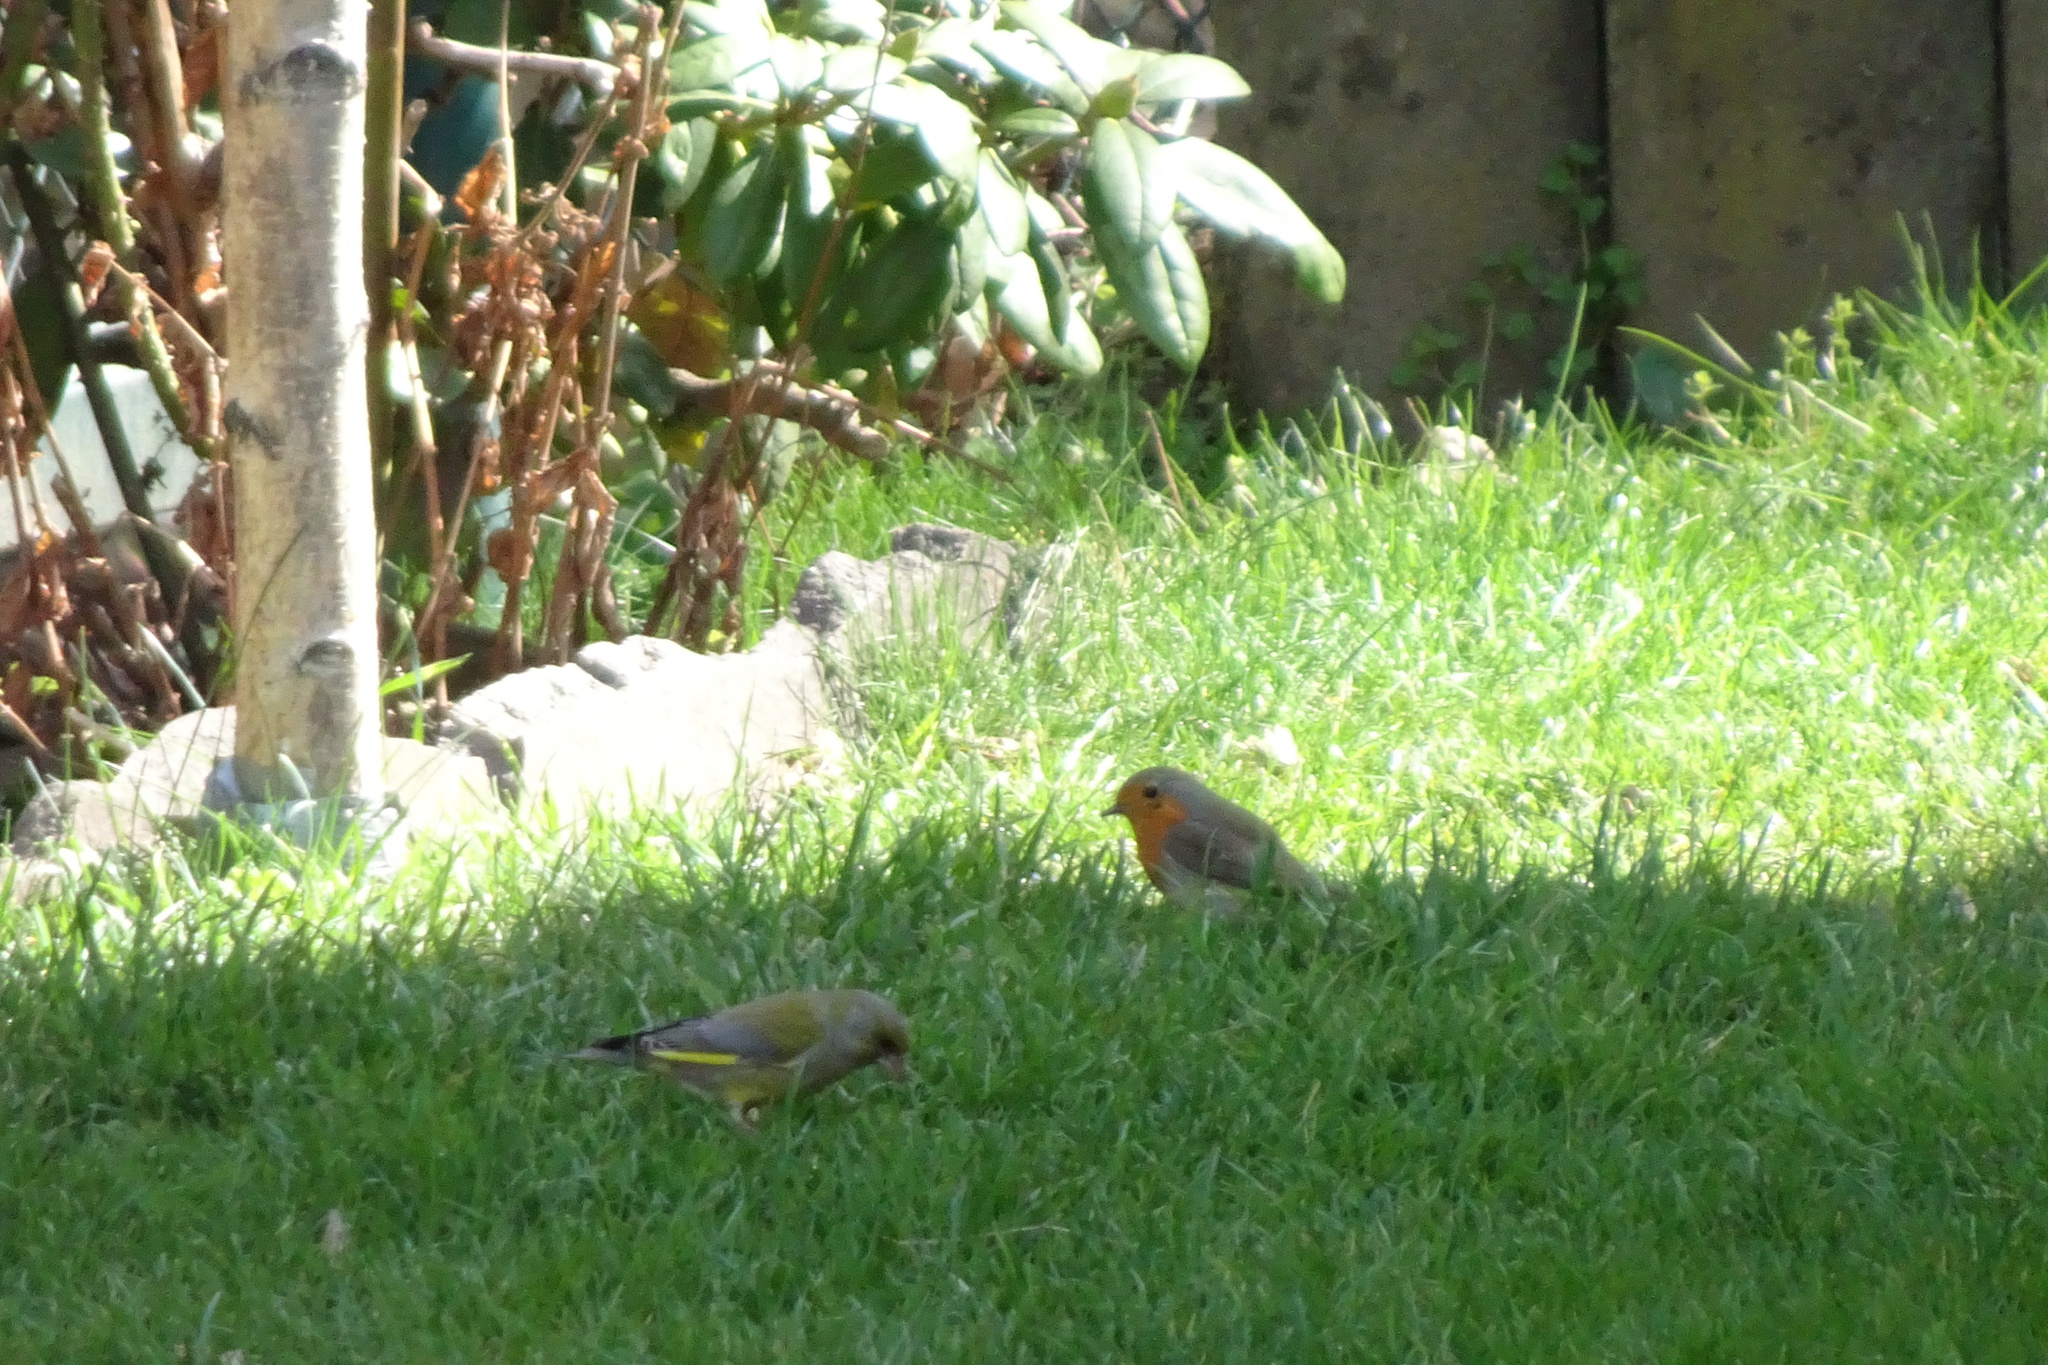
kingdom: Plantae
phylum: Tracheophyta
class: Liliopsida
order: Poales
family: Poaceae
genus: Chloris
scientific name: Chloris chloris
